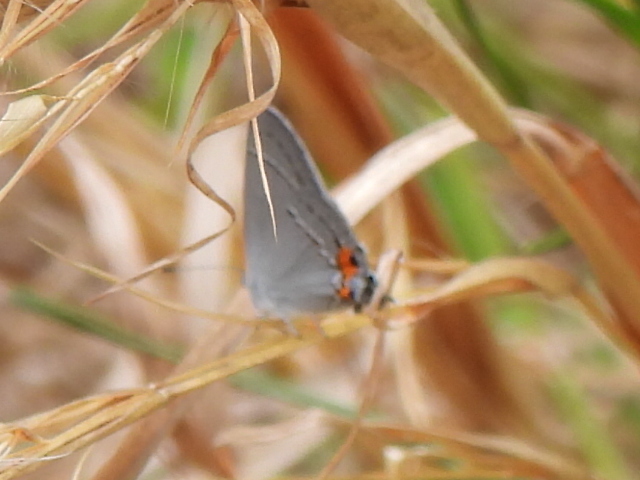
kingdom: Animalia
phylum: Arthropoda
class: Insecta
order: Lepidoptera
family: Lycaenidae
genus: Strymon
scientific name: Strymon melinus
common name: Gray hairstreak
